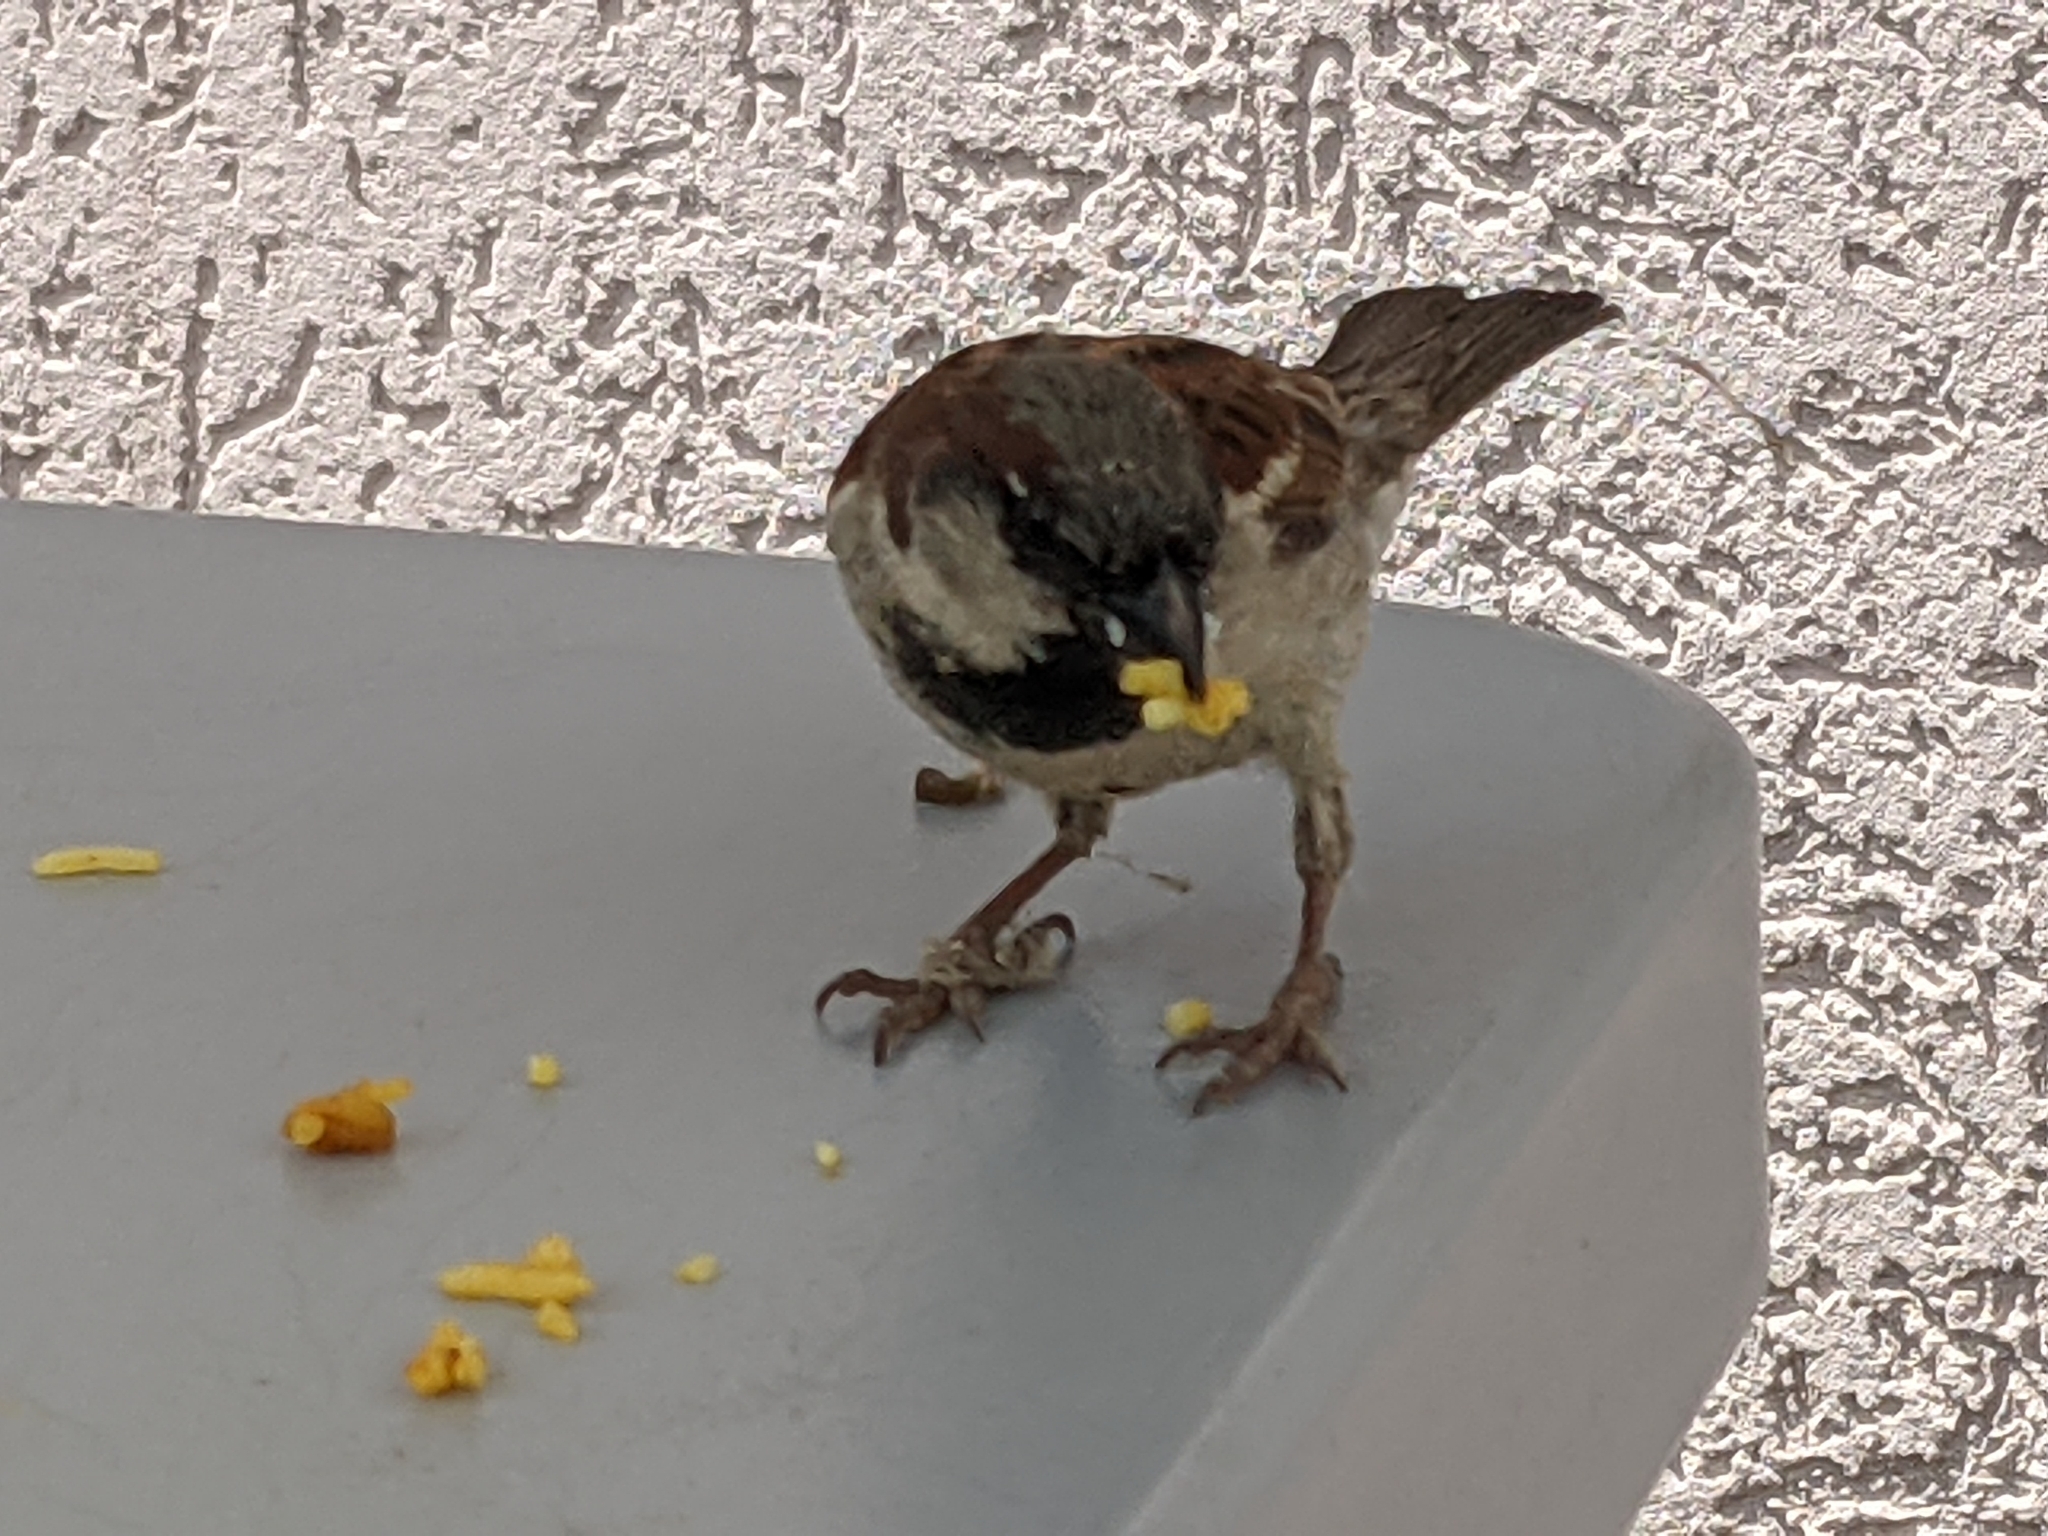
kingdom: Animalia
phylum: Chordata
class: Aves
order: Passeriformes
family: Passeridae
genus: Passer
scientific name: Passer domesticus
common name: House sparrow
